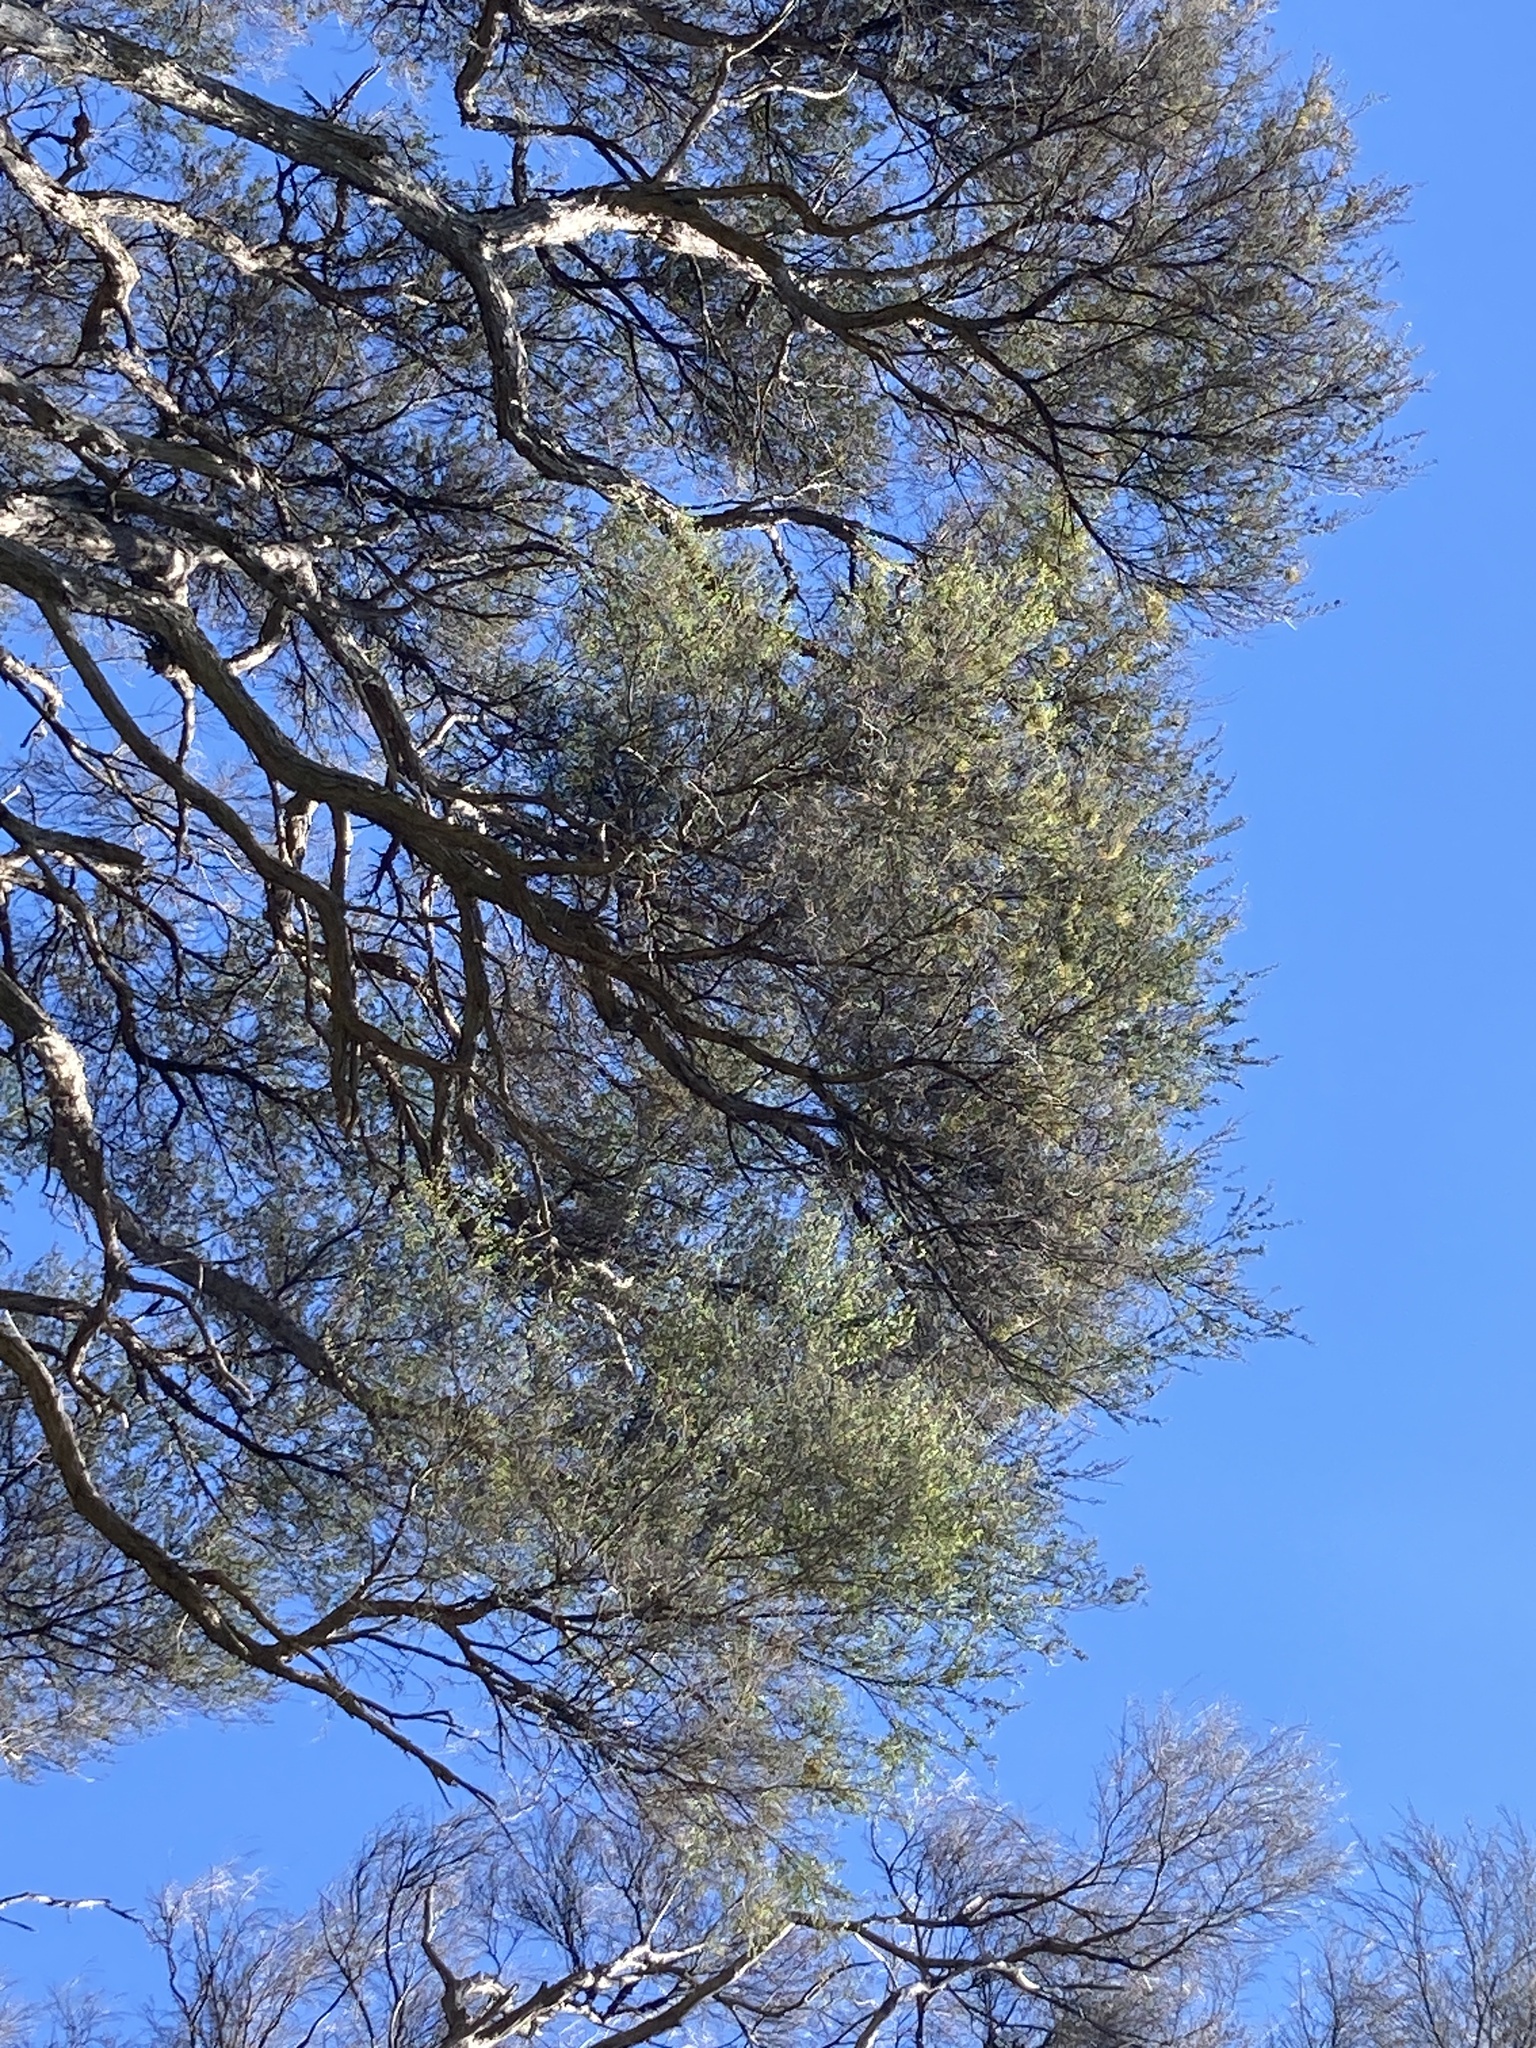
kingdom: Plantae
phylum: Tracheophyta
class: Magnoliopsida
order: Santalales
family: Viscaceae
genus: Korthalsella
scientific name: Korthalsella salicornioides
